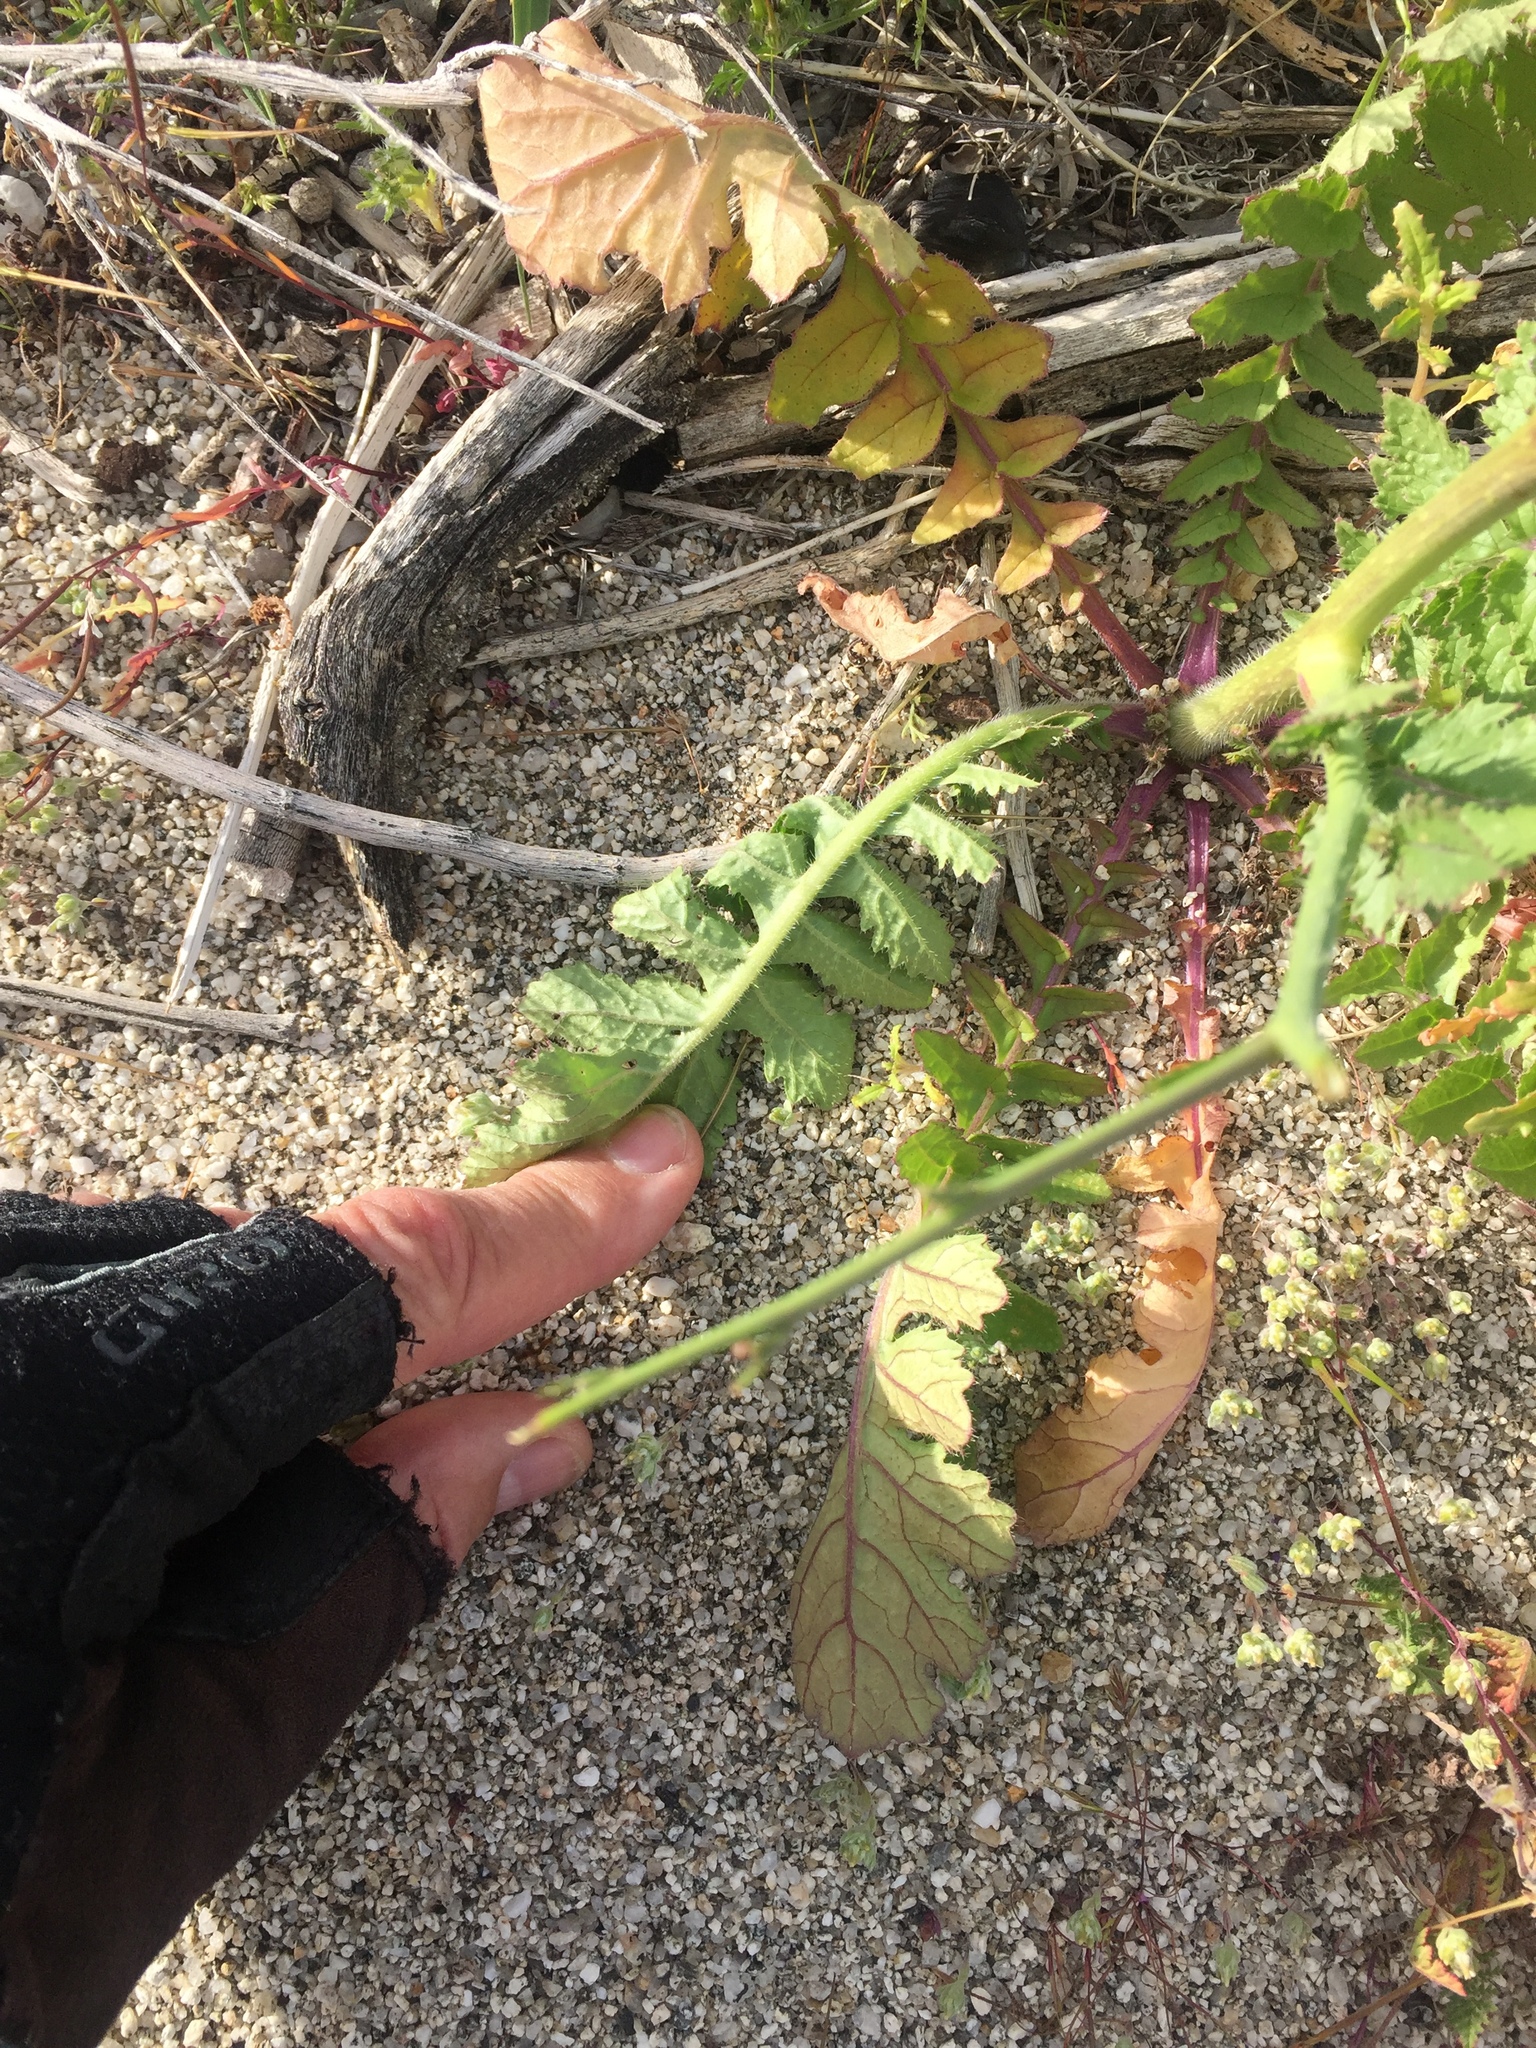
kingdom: Plantae
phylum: Tracheophyta
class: Magnoliopsida
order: Brassicales
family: Brassicaceae
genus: Brassica
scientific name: Brassica tournefortii
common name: Pale cabbage
